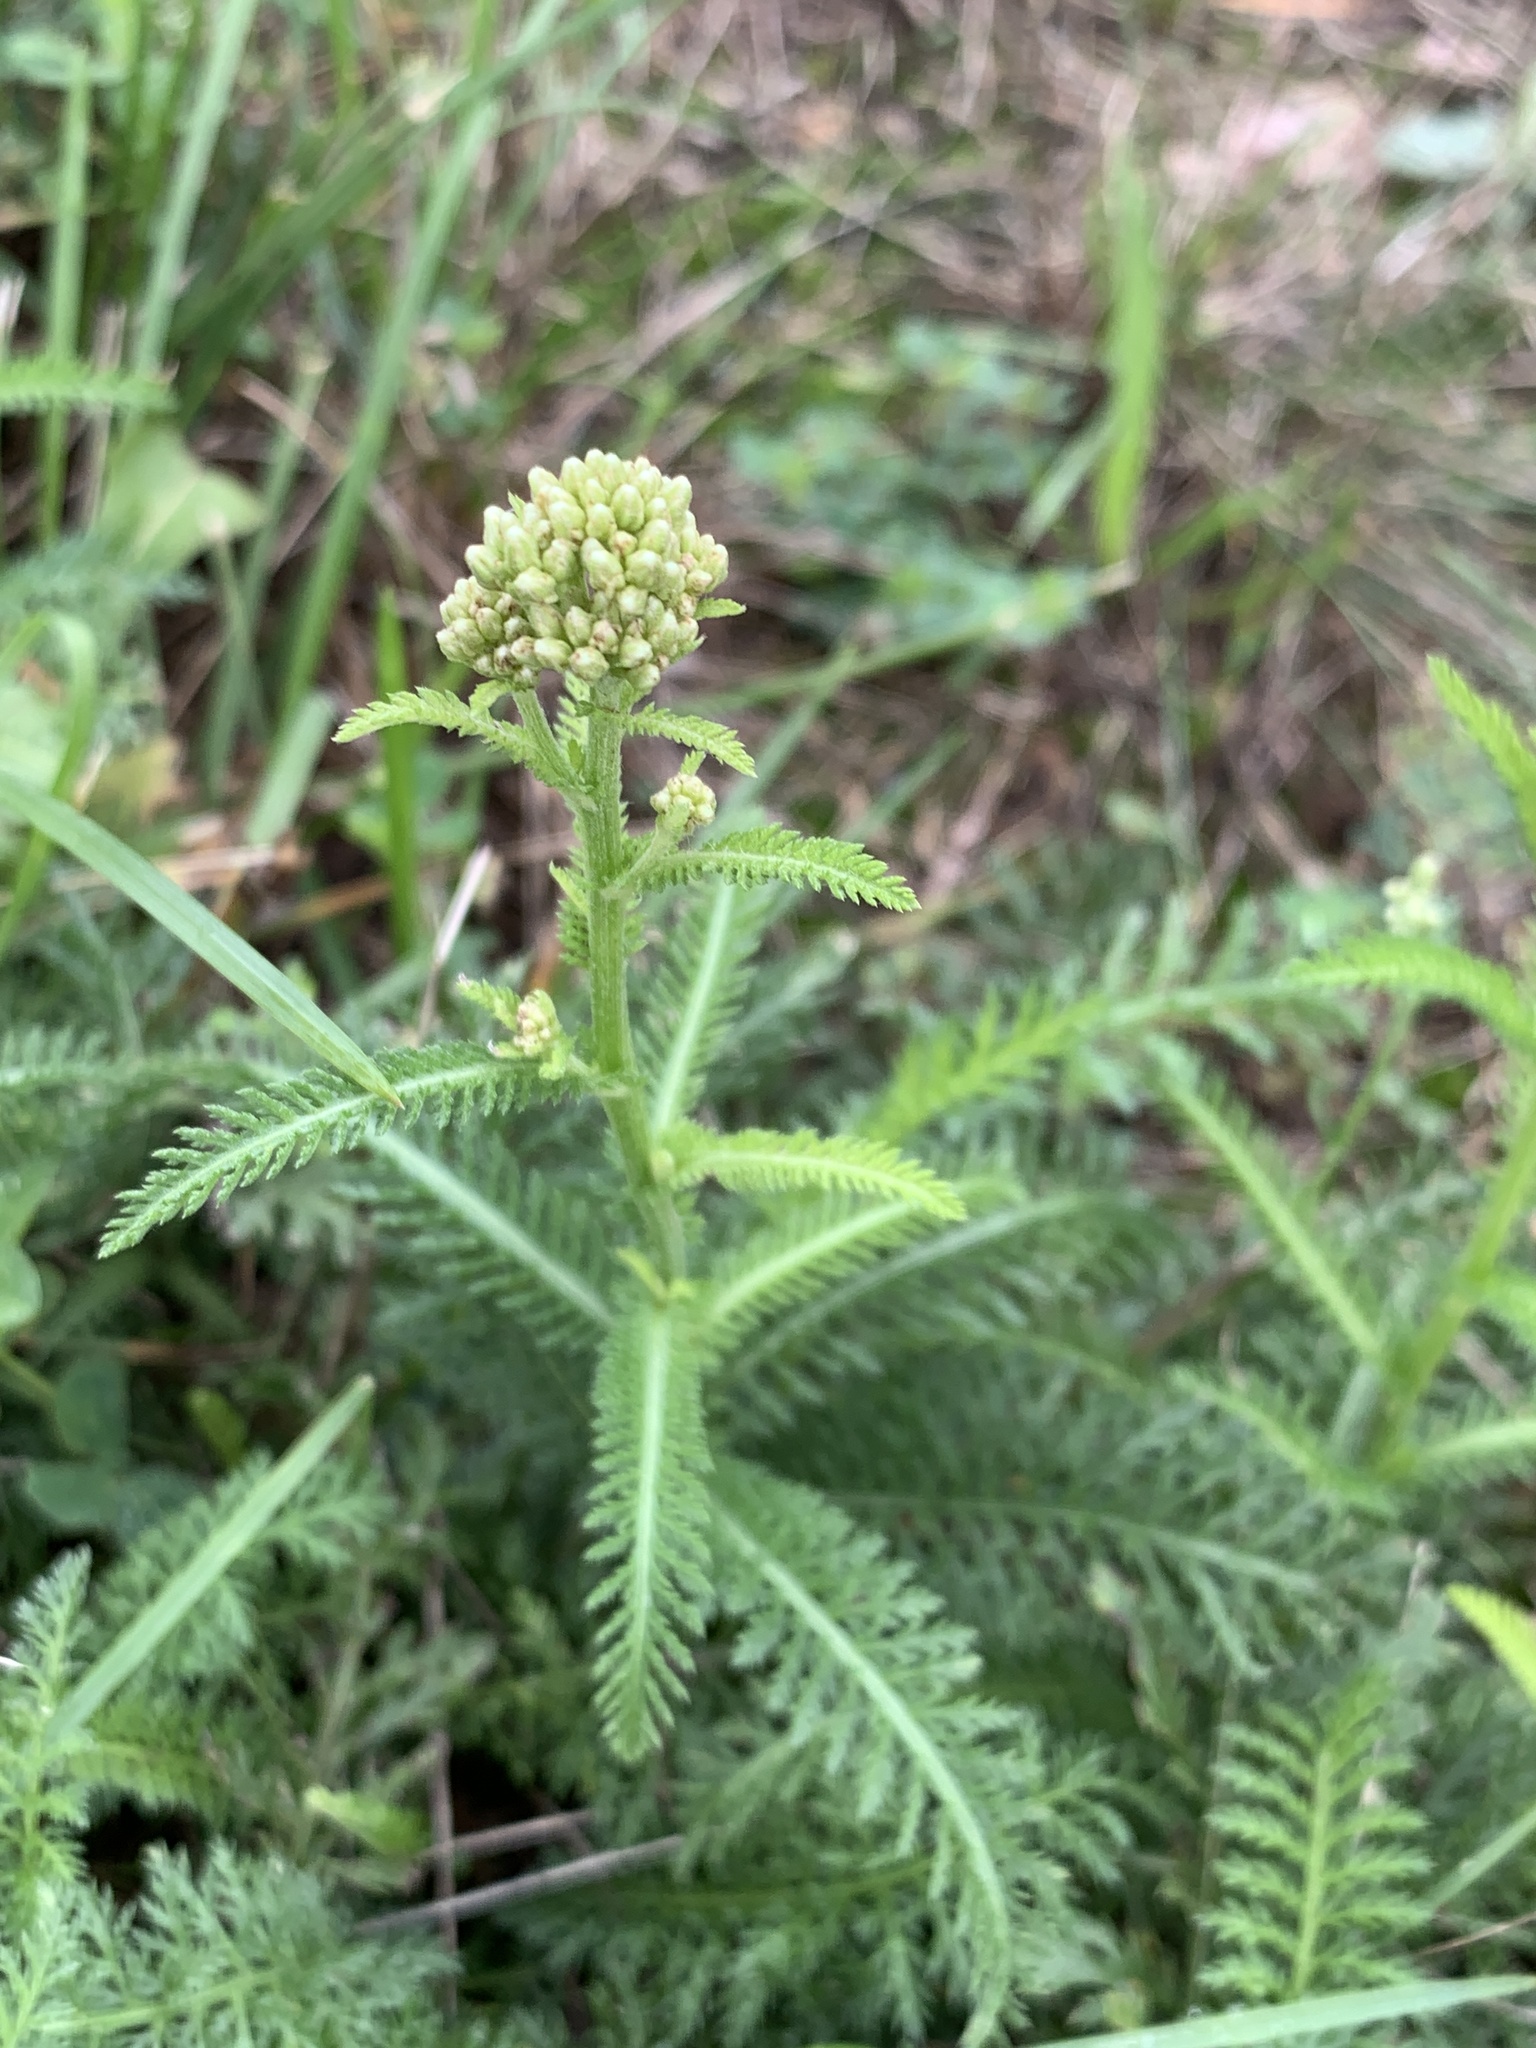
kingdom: Plantae
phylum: Tracheophyta
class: Magnoliopsida
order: Asterales
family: Asteraceae
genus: Achillea
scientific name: Achillea millefolium
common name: Yarrow
